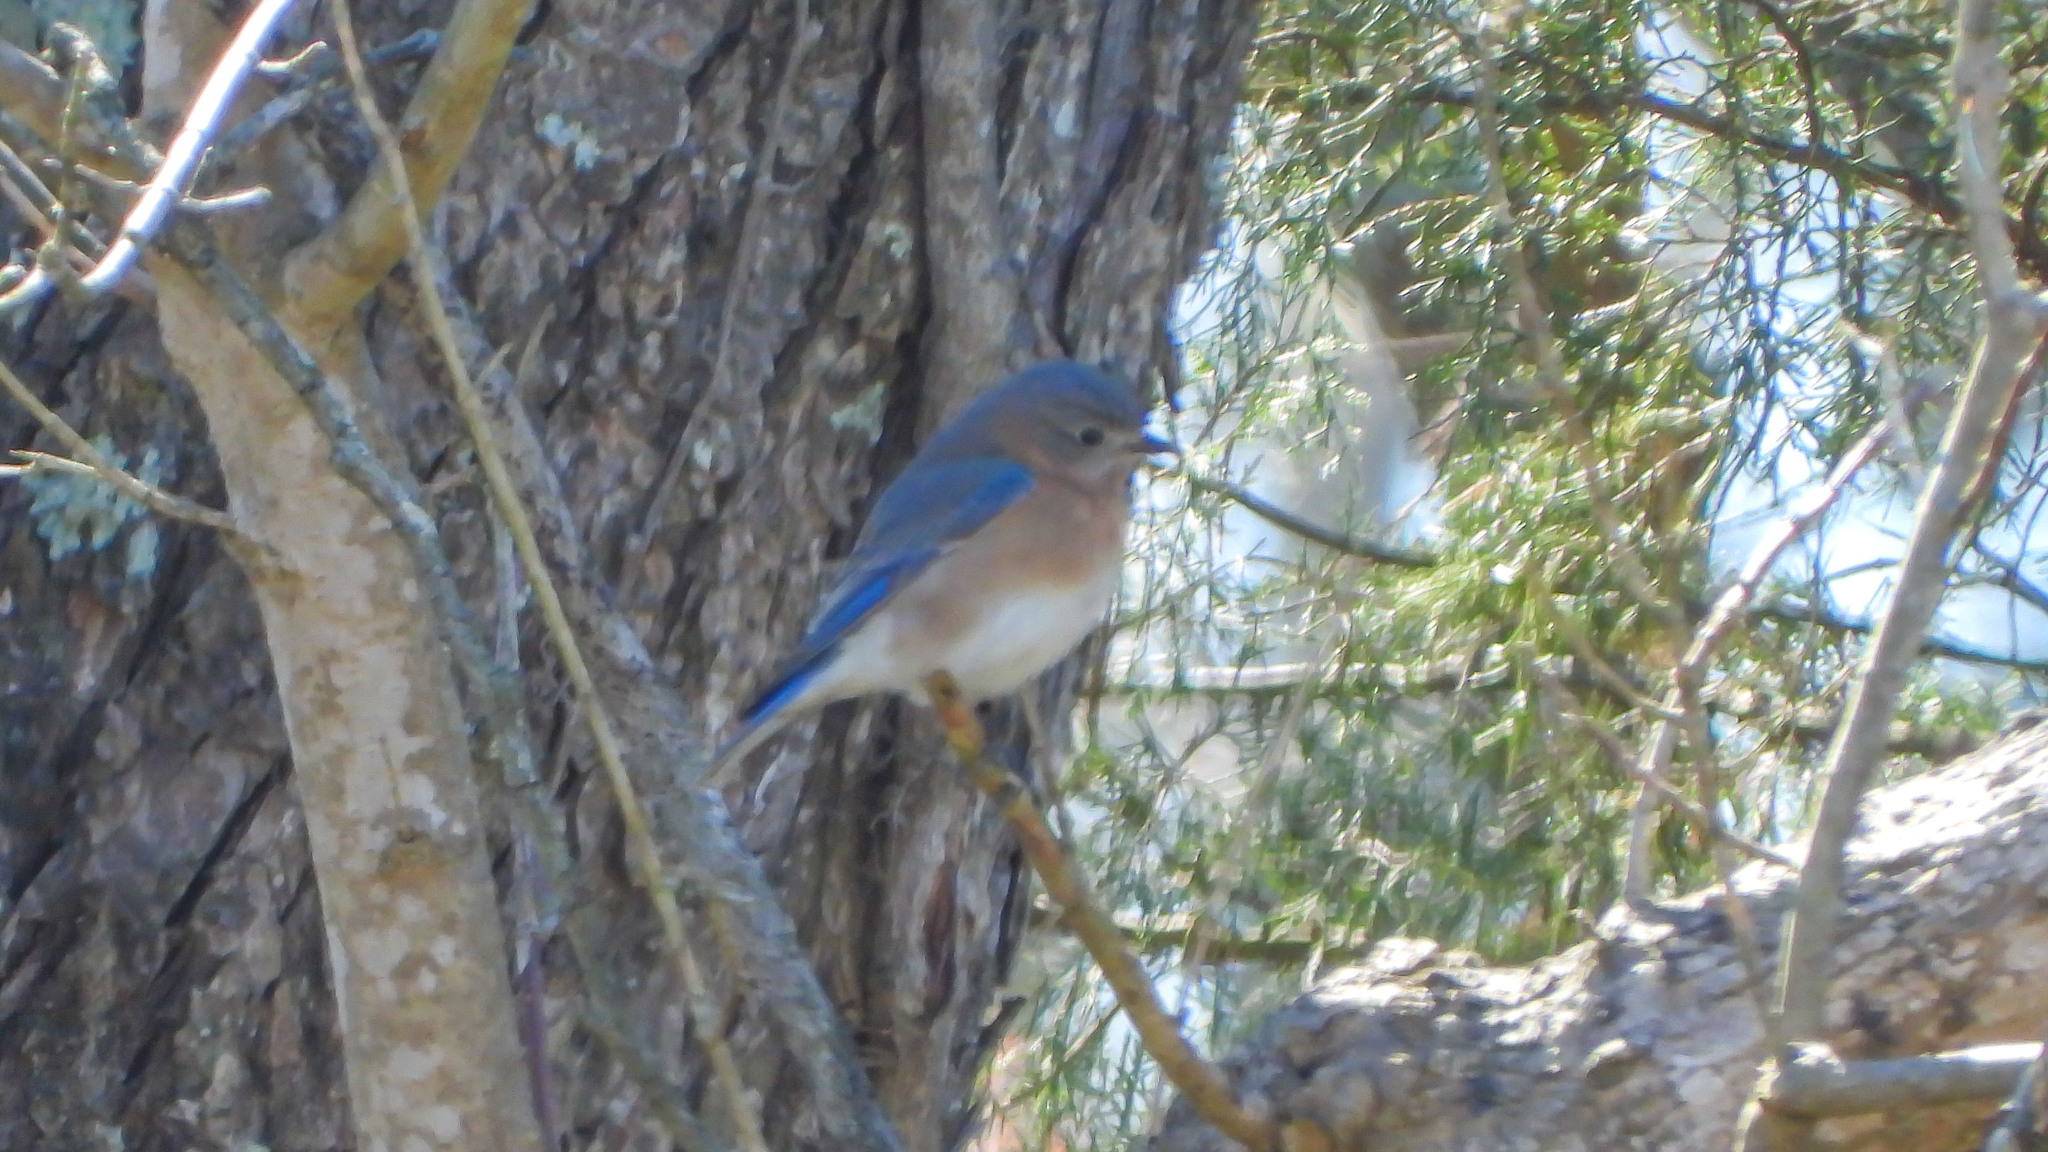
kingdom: Animalia
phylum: Chordata
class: Aves
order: Passeriformes
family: Turdidae
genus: Sialia
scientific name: Sialia sialis
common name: Eastern bluebird
